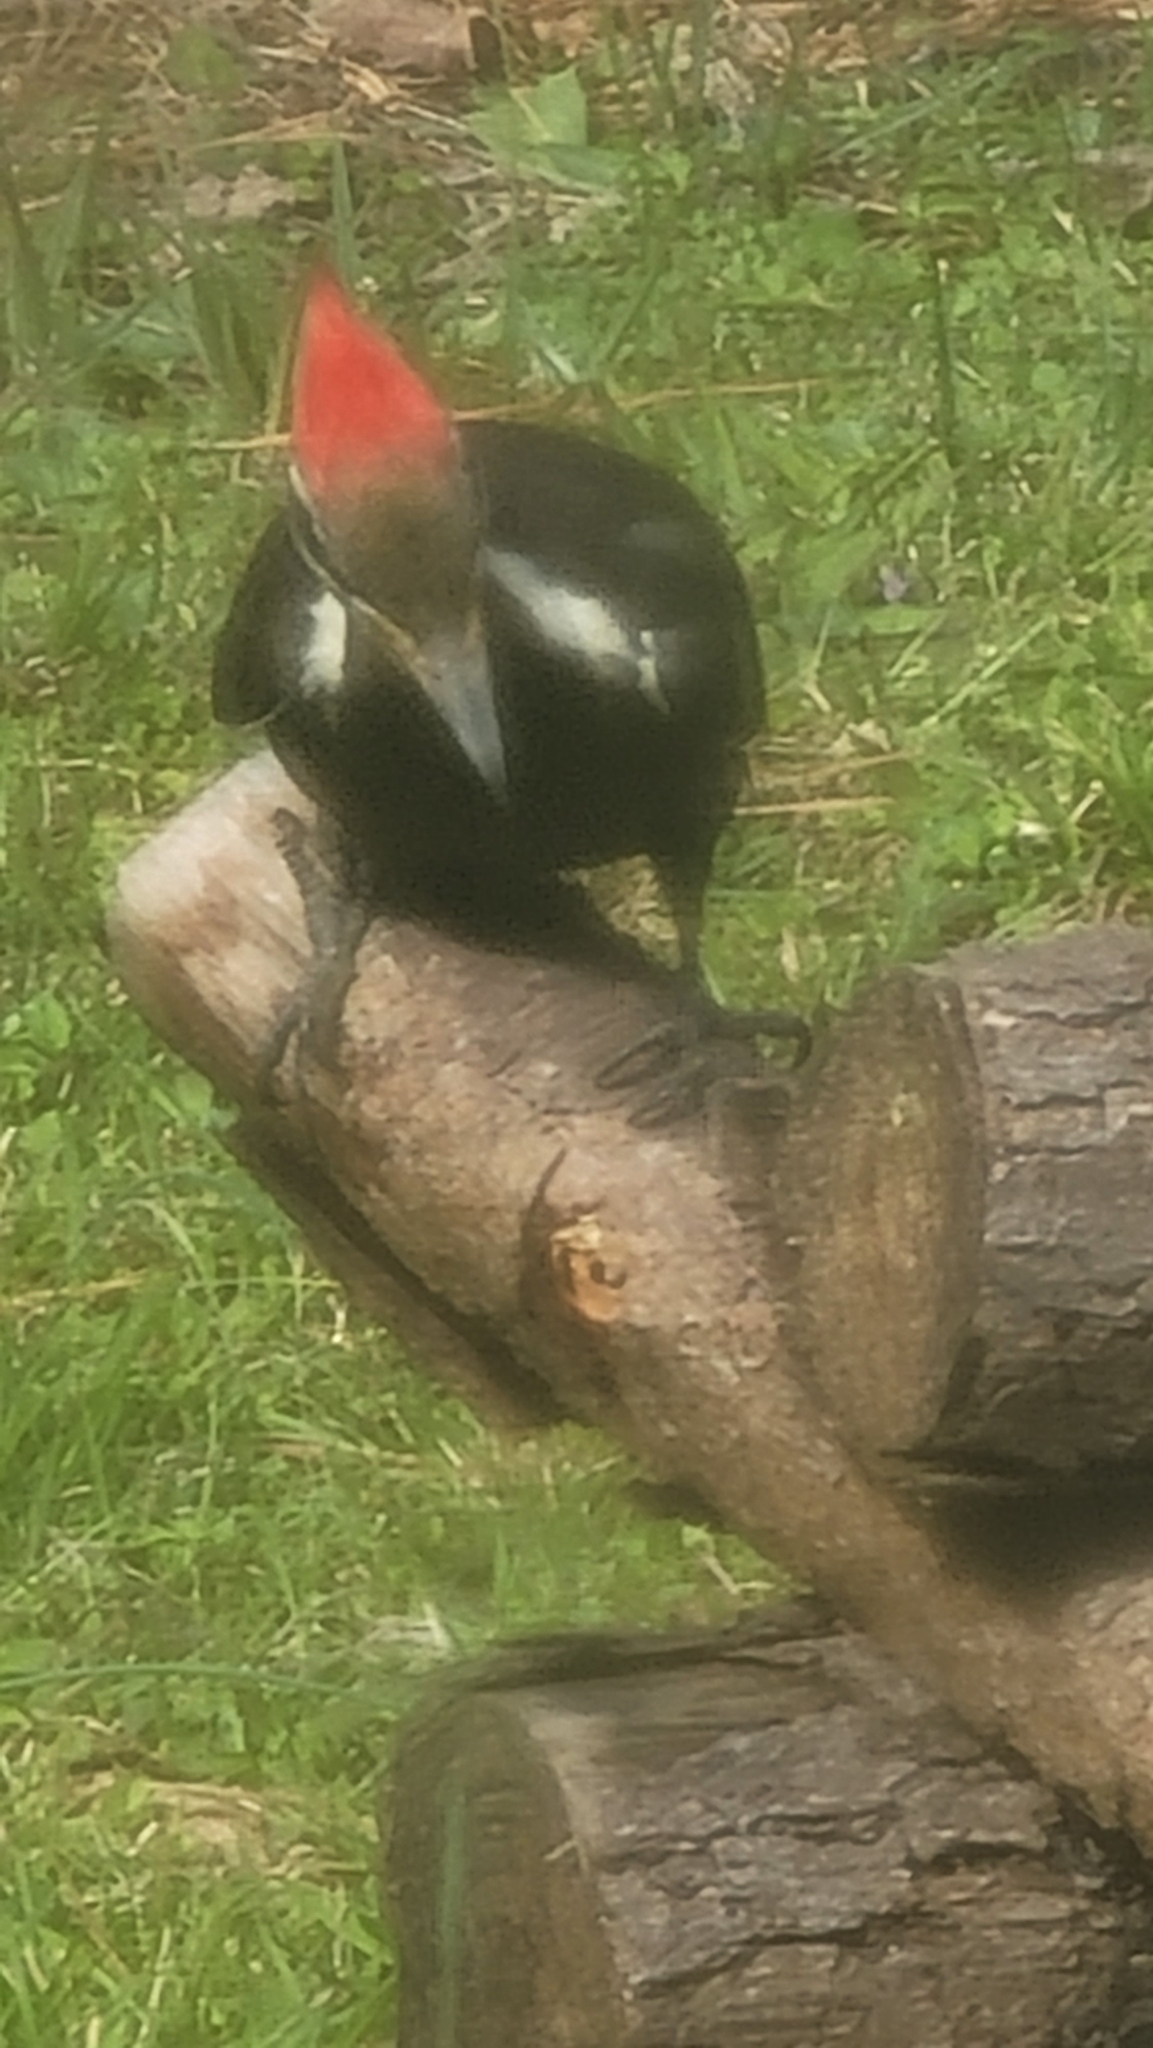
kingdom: Animalia
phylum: Chordata
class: Aves
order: Piciformes
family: Picidae
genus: Dryocopus
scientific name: Dryocopus pileatus
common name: Pileated woodpecker
